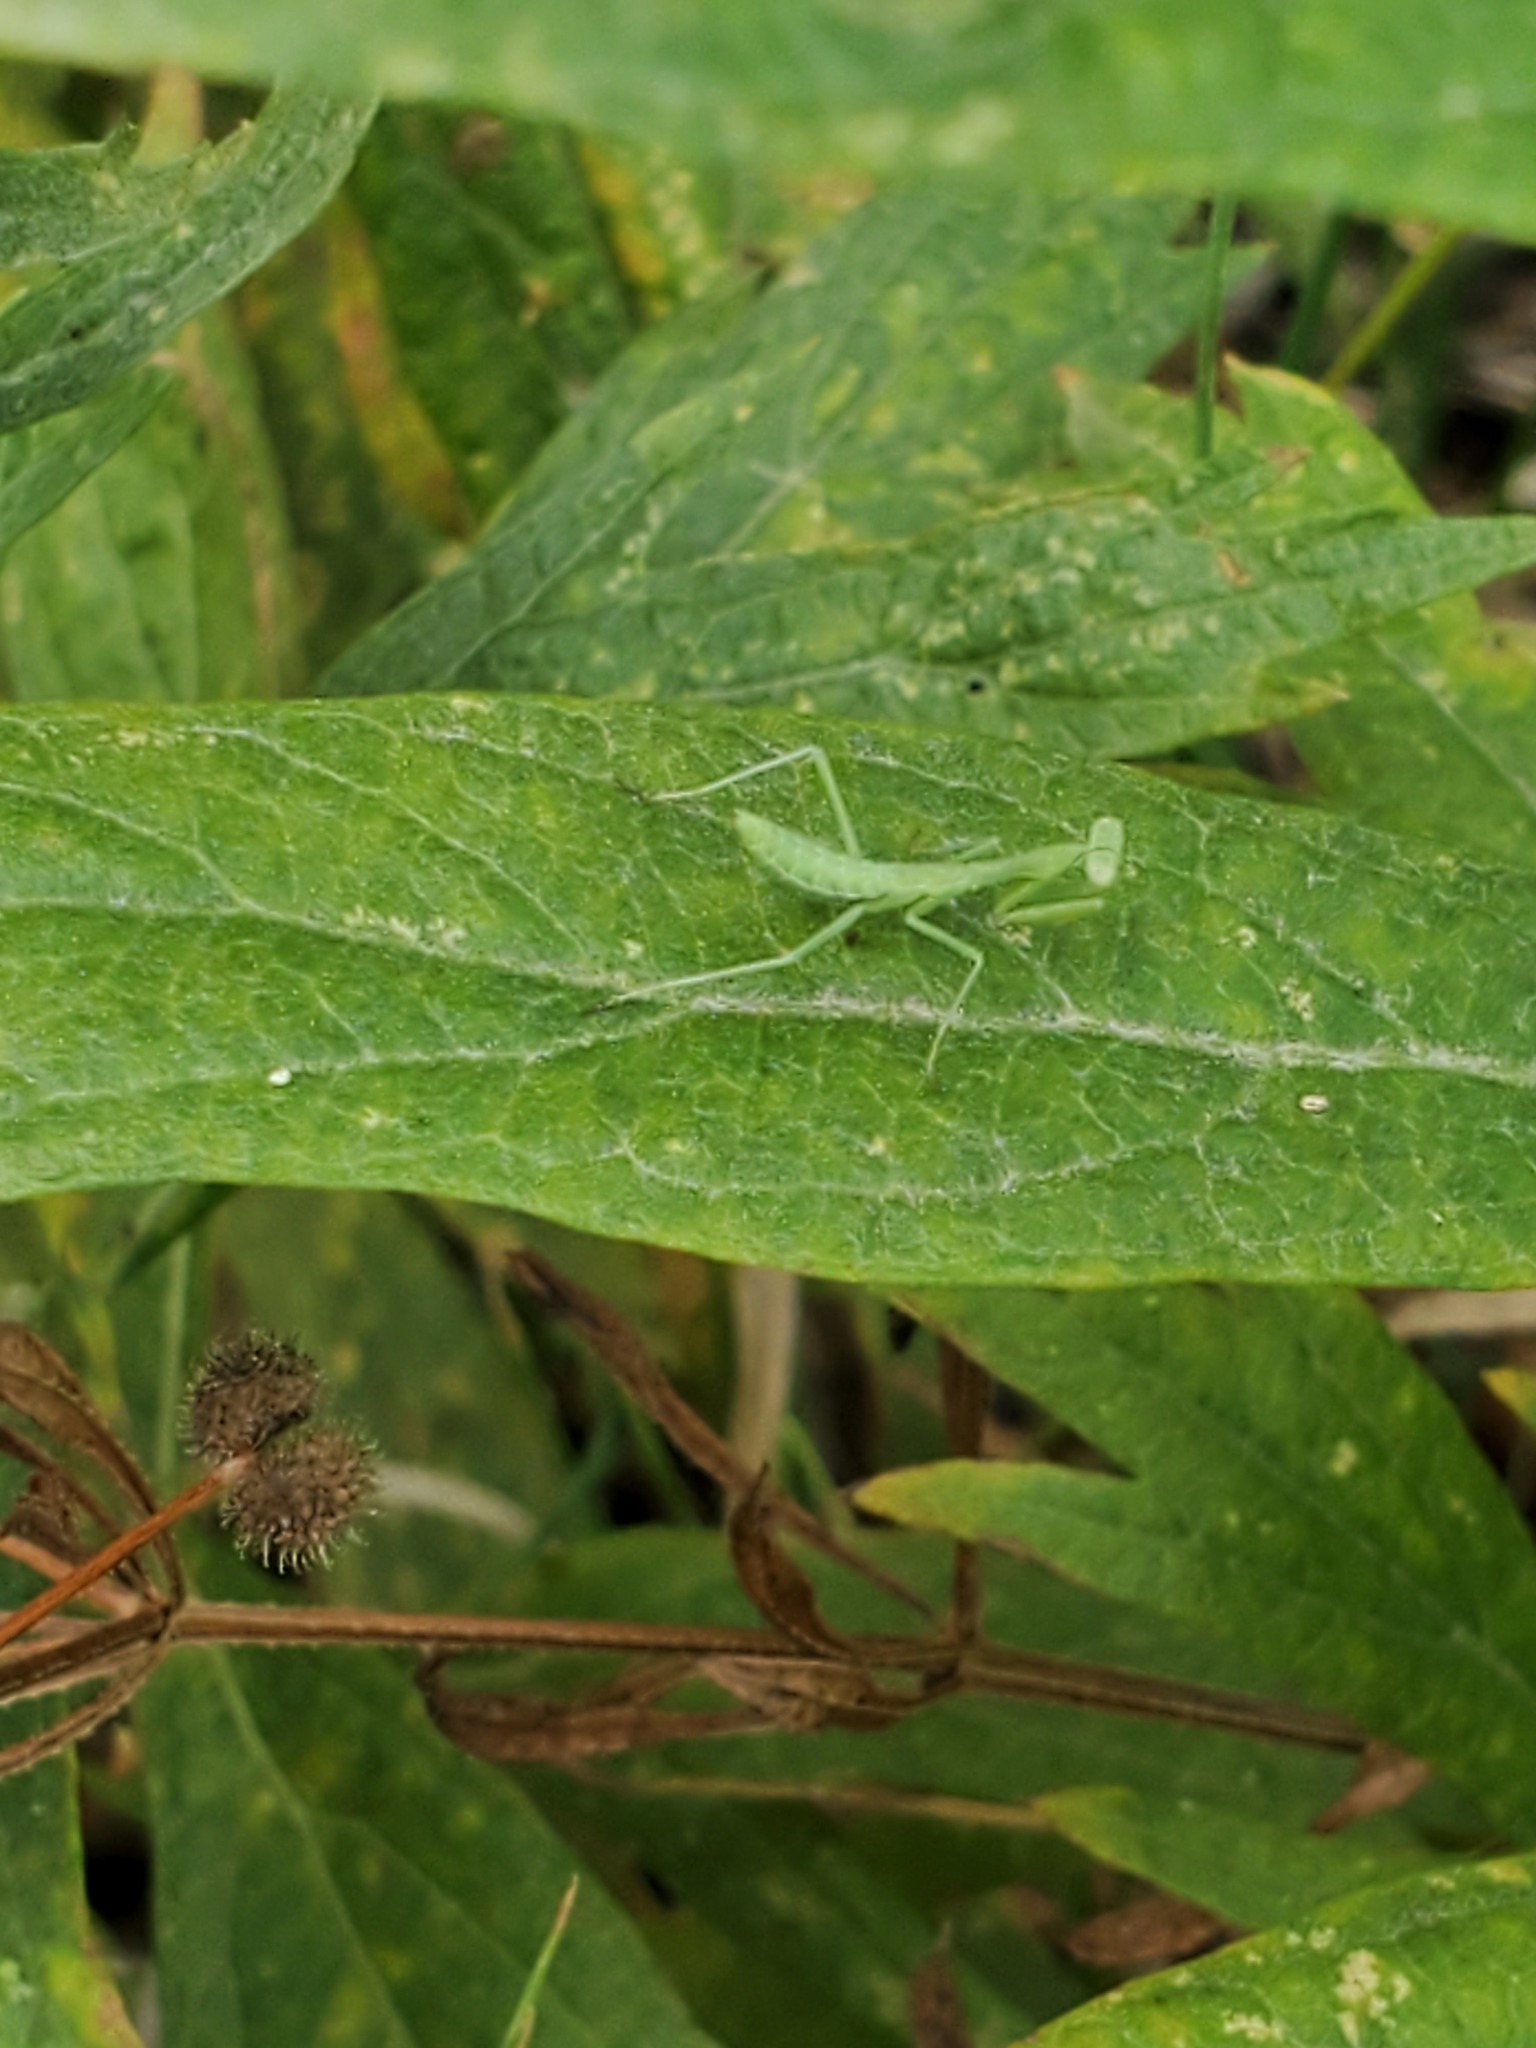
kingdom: Animalia
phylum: Arthropoda
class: Insecta
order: Mantodea
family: Mantidae
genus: Stagmomantis
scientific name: Stagmomantis limbata
